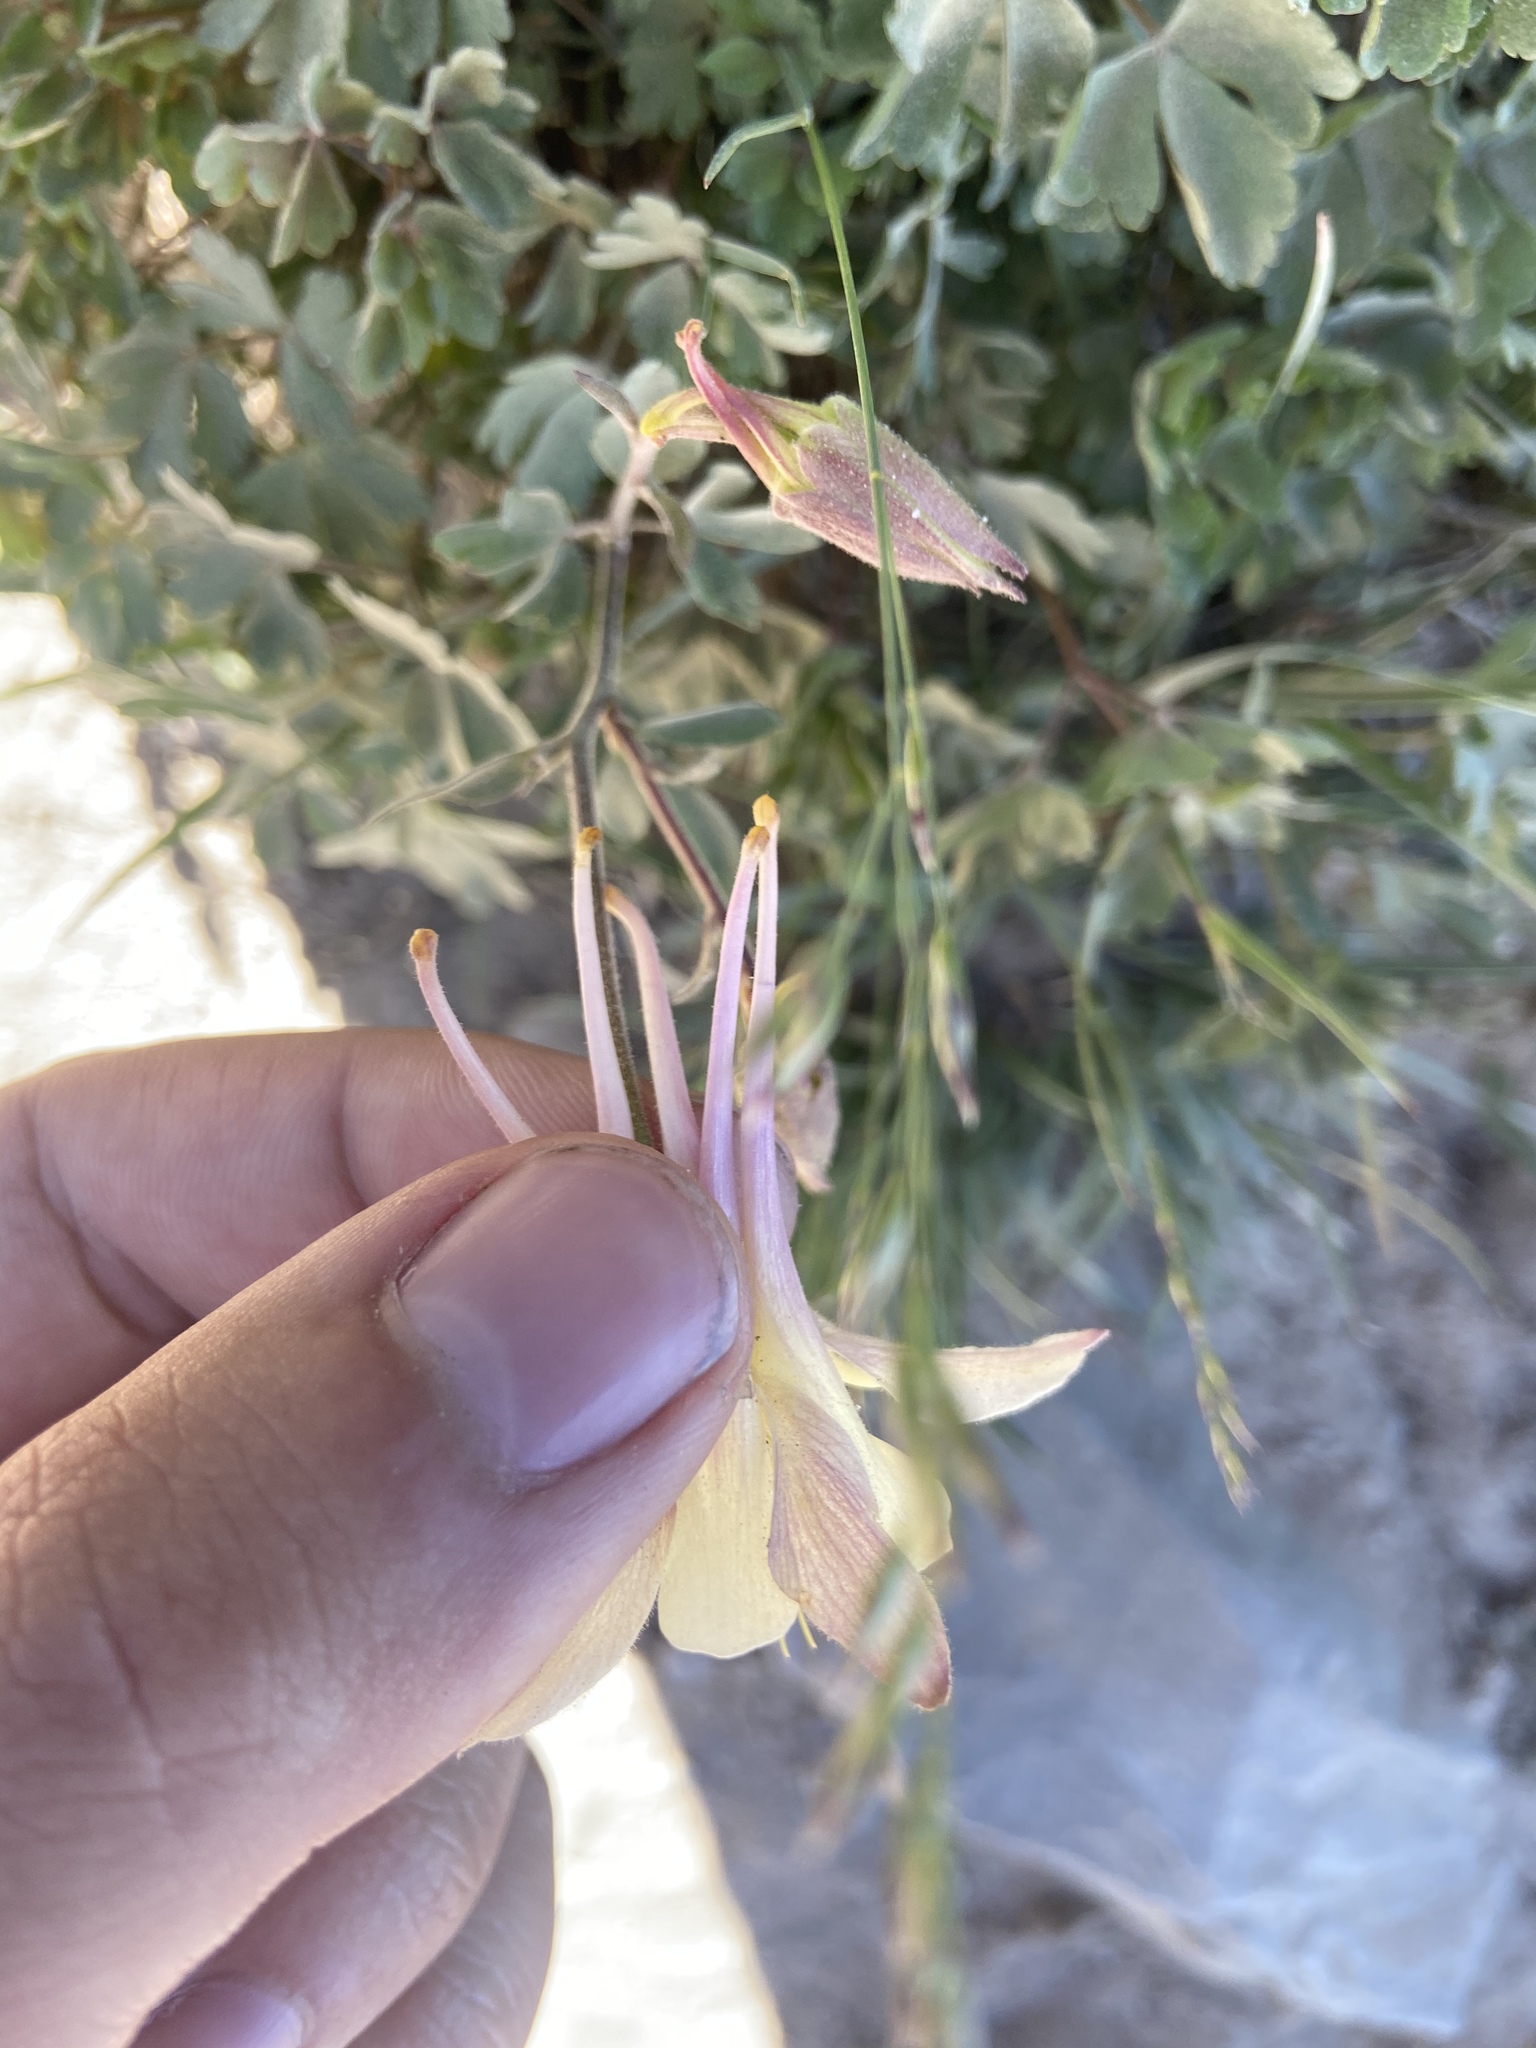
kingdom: Plantae
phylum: Tracheophyta
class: Magnoliopsida
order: Ranunculales
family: Ranunculaceae
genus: Aquilegia
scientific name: Aquilegia pubescens
